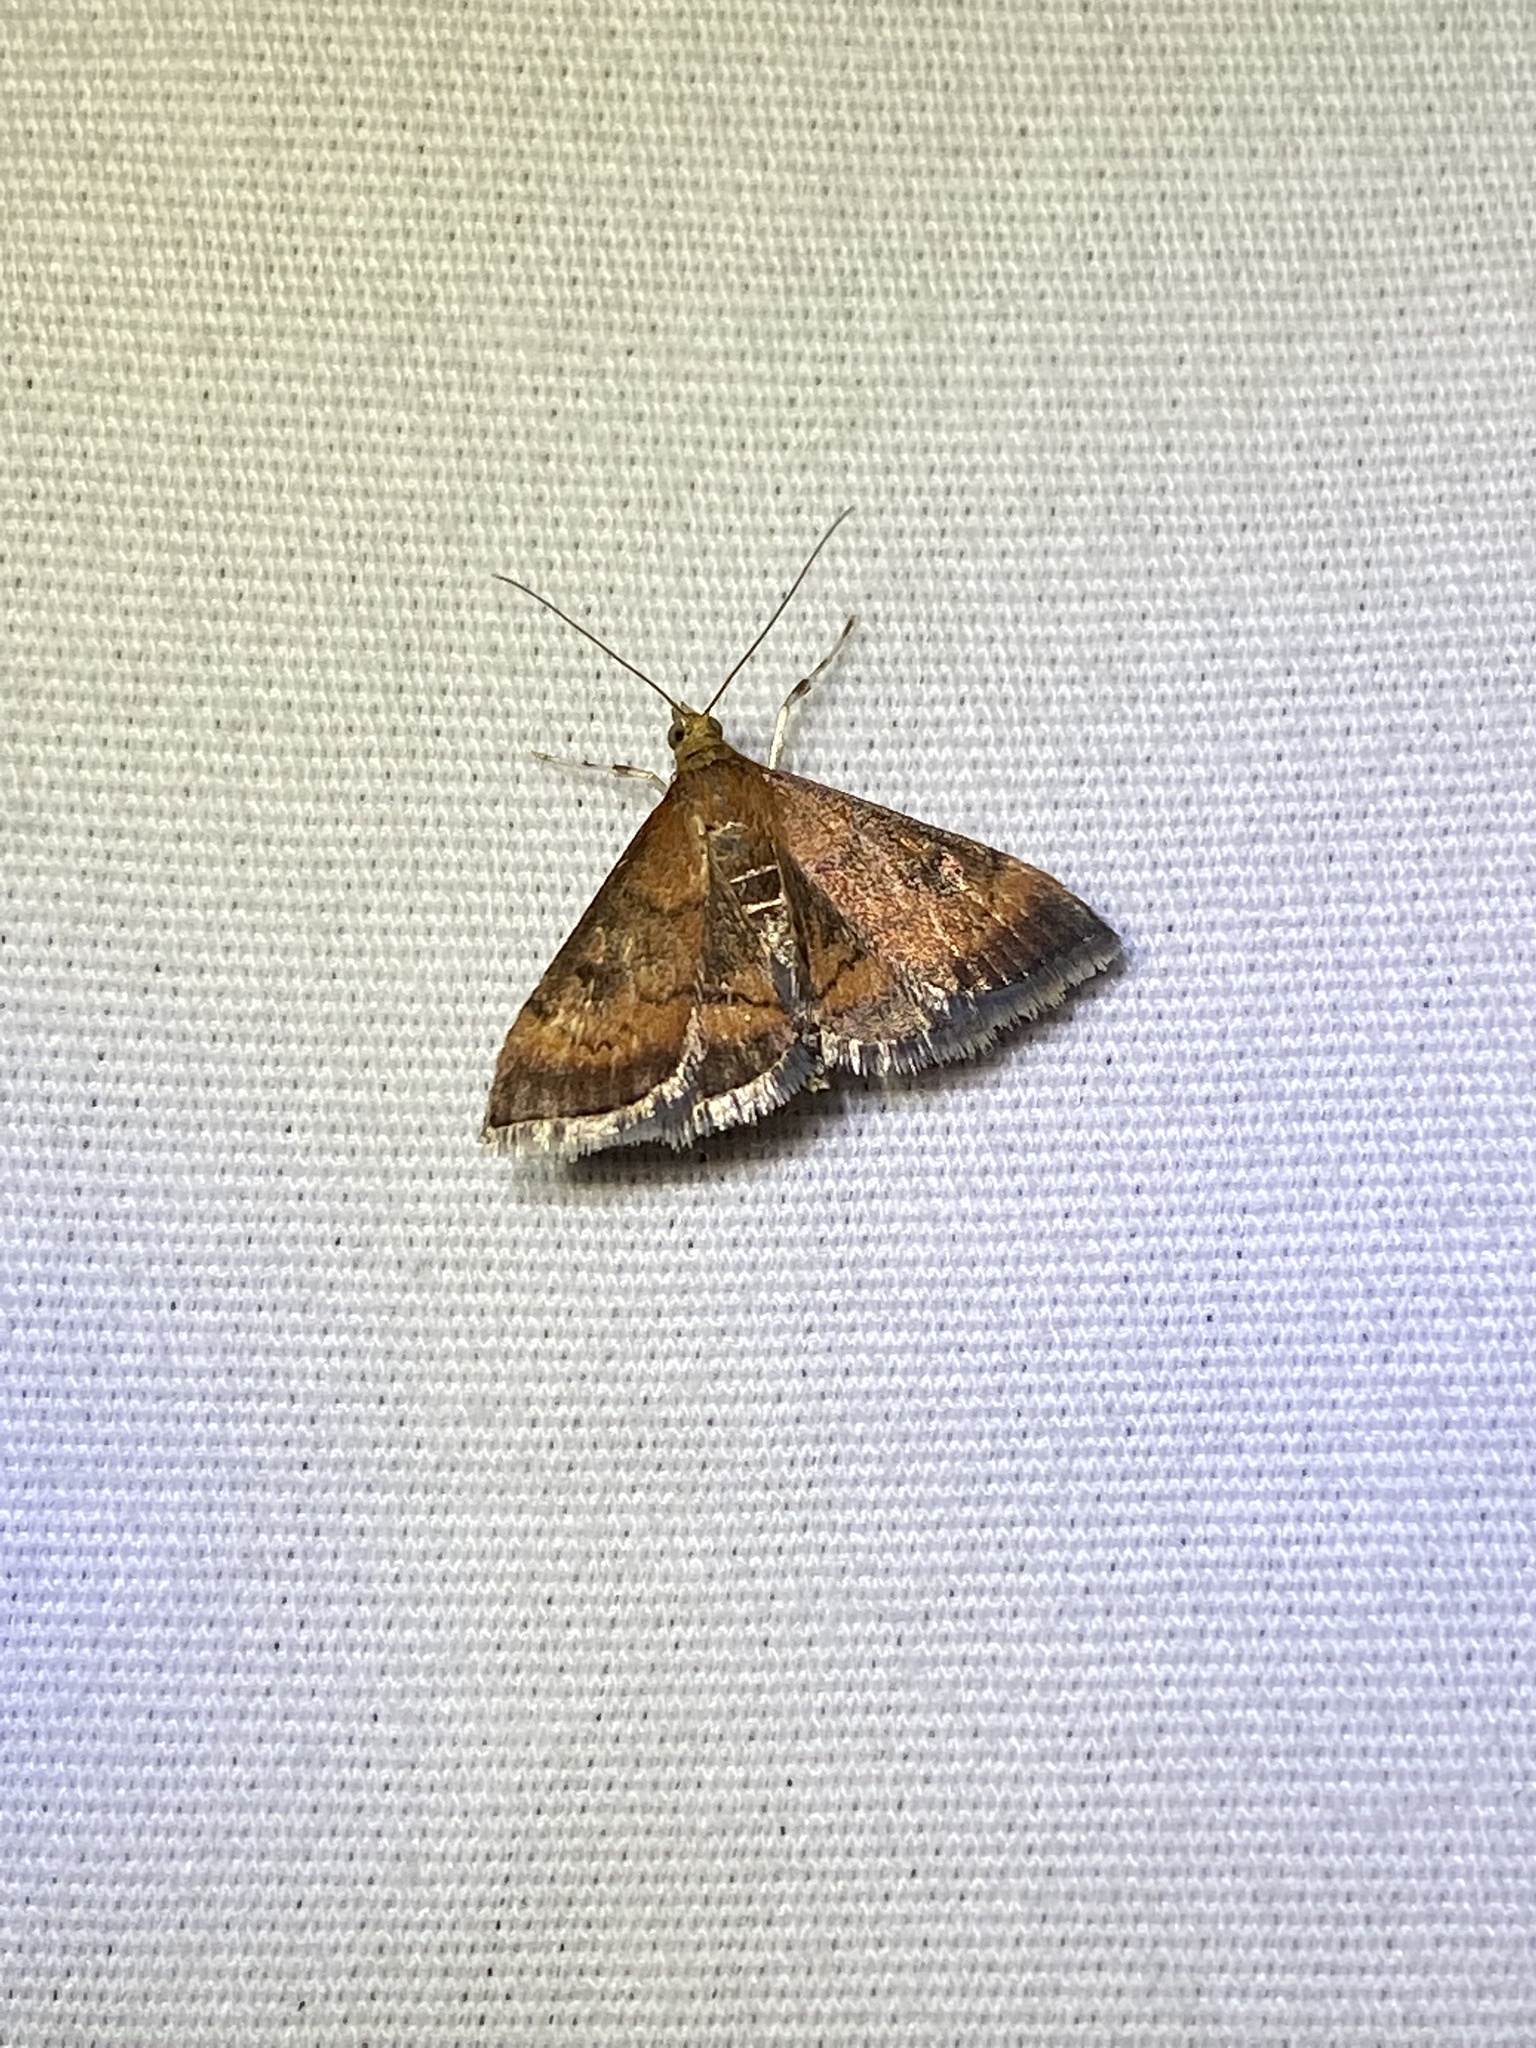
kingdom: Animalia
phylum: Arthropoda
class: Insecta
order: Lepidoptera
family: Crambidae
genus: Pyrausta
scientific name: Pyrausta rubricalis
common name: Variable reddish pyrausta
